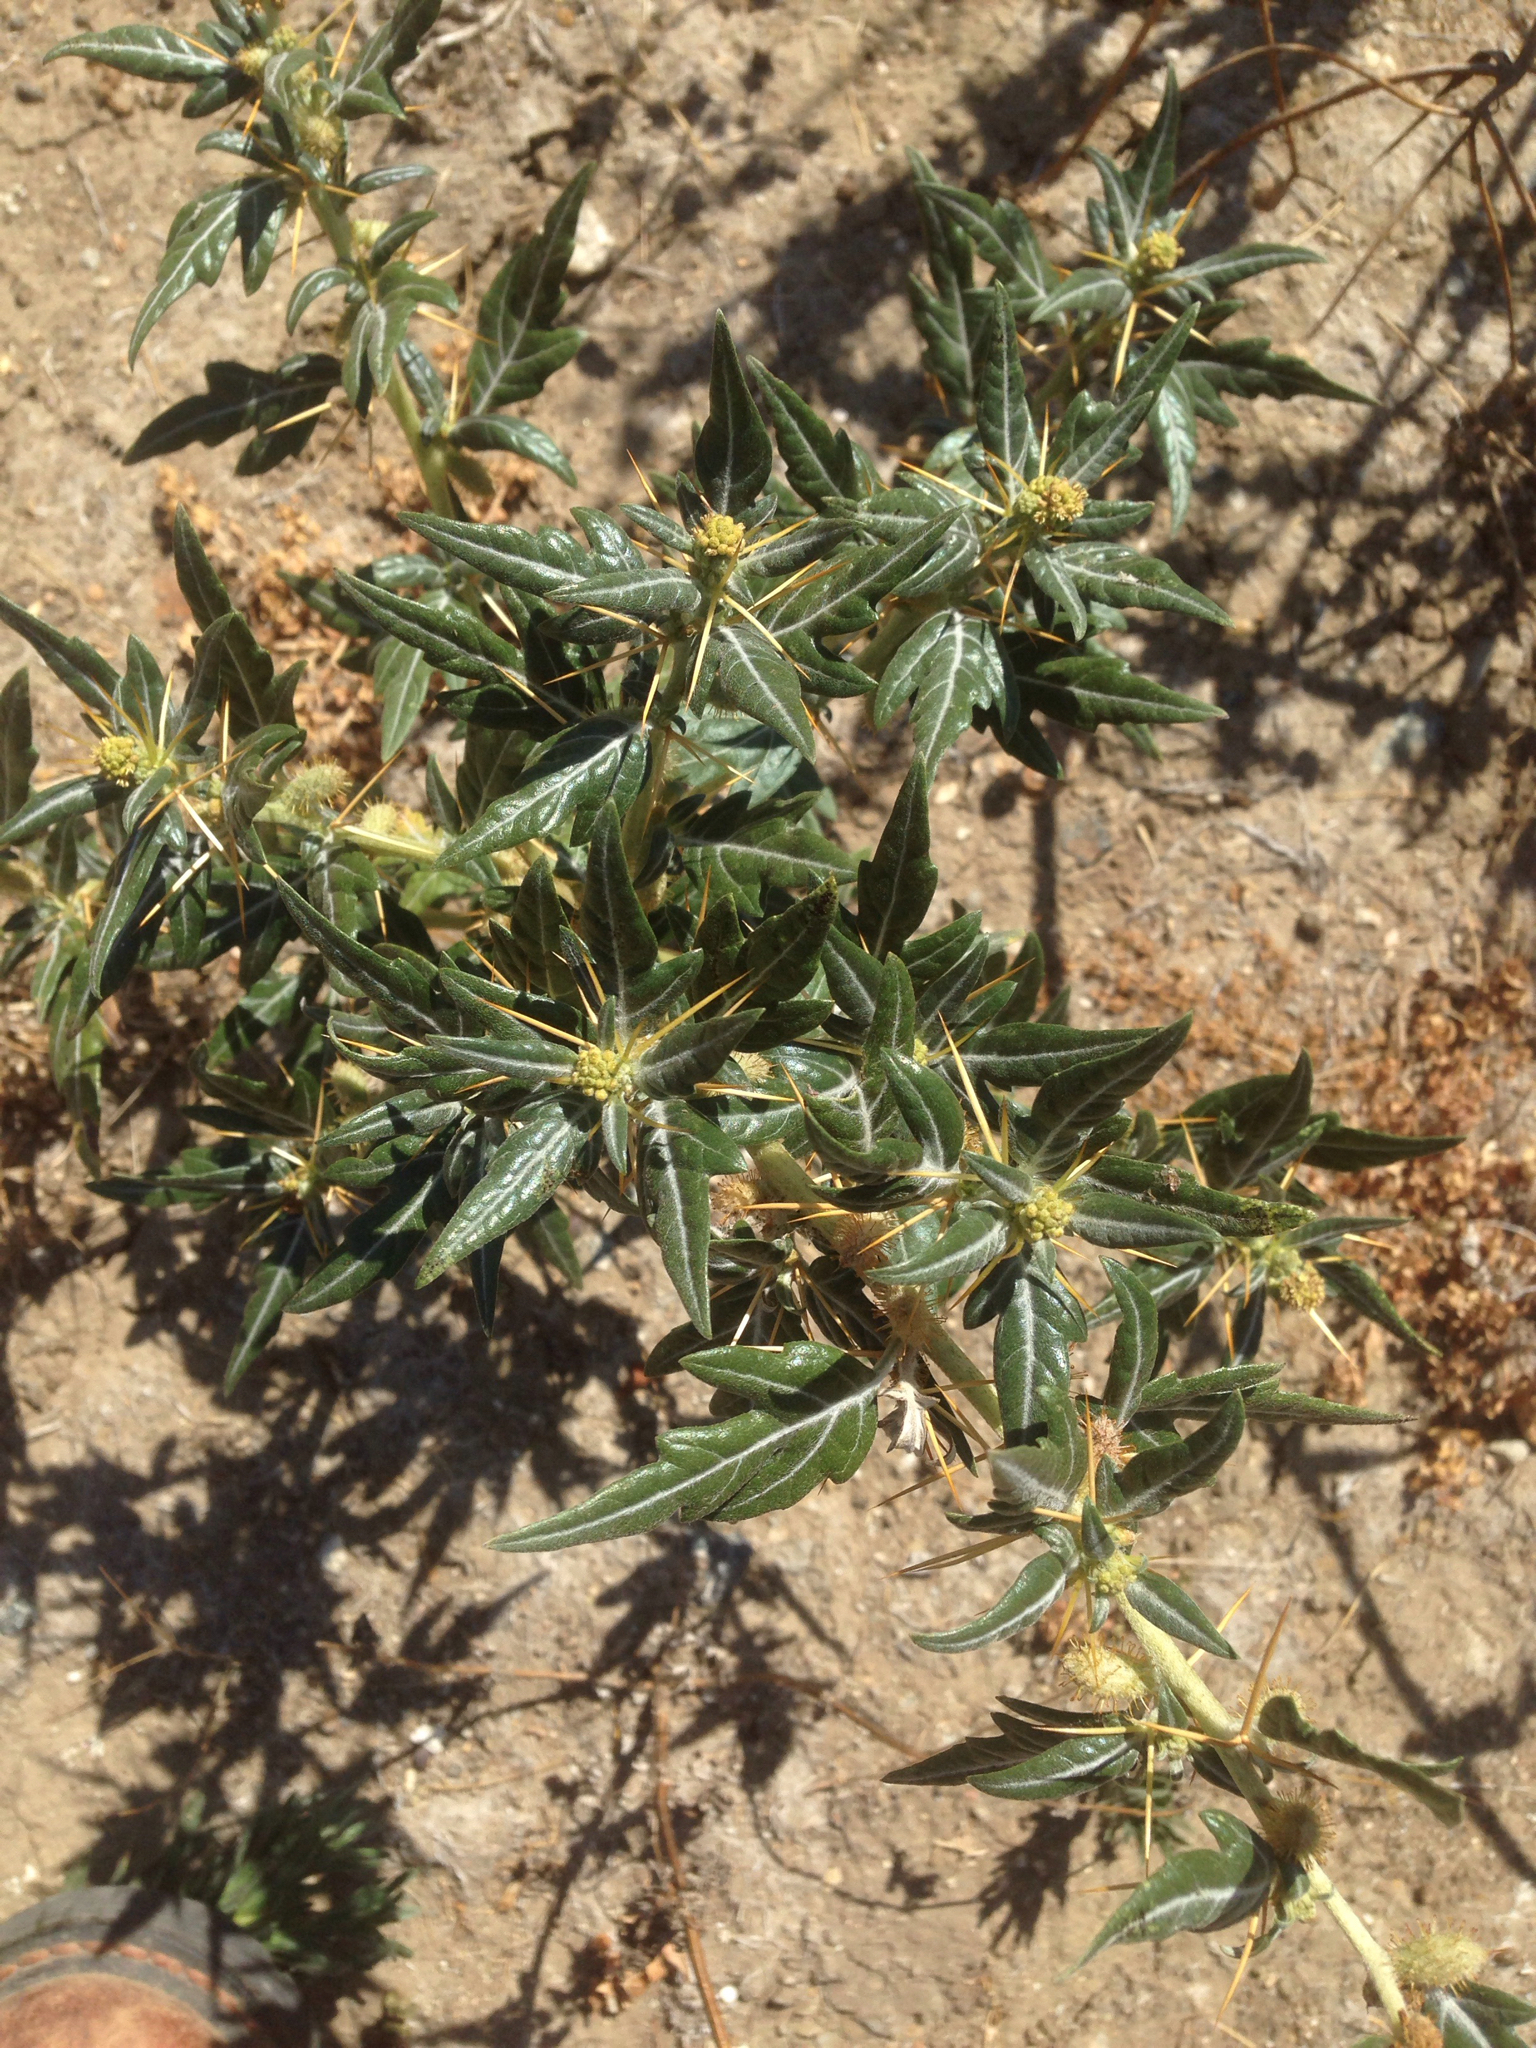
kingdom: Plantae
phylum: Tracheophyta
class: Magnoliopsida
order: Asterales
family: Asteraceae
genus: Xanthium
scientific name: Xanthium spinosum
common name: Spiny cocklebur
